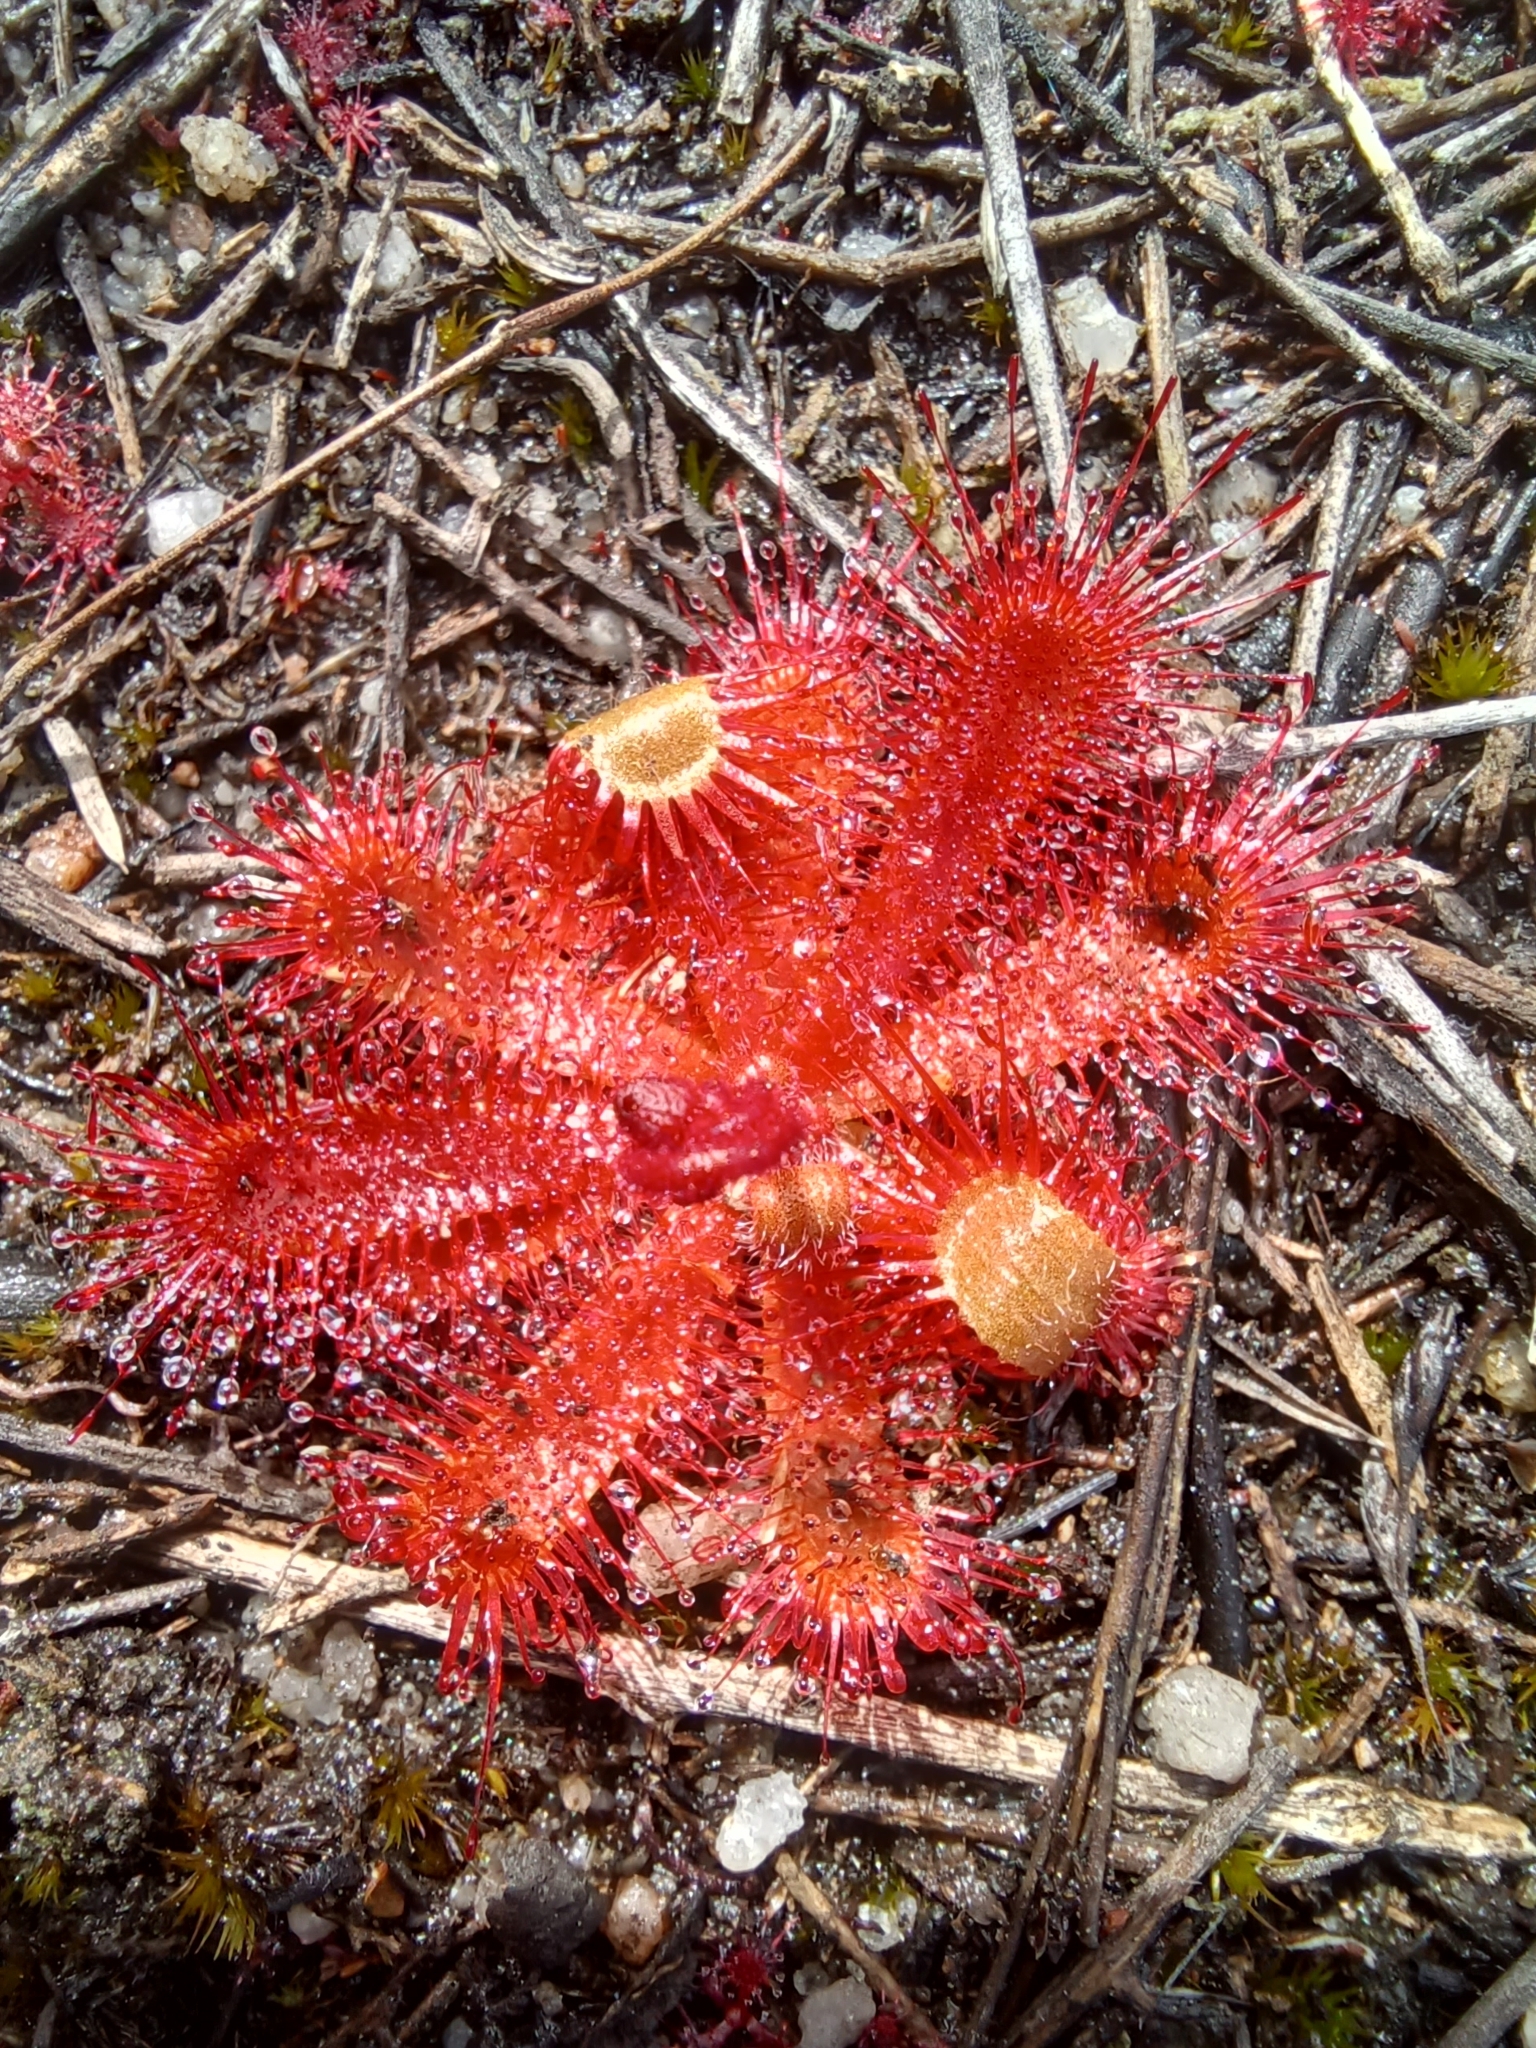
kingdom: Plantae
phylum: Tracheophyta
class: Magnoliopsida
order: Caryophyllales
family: Droseraceae
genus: Drosera
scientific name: Drosera trinervia
